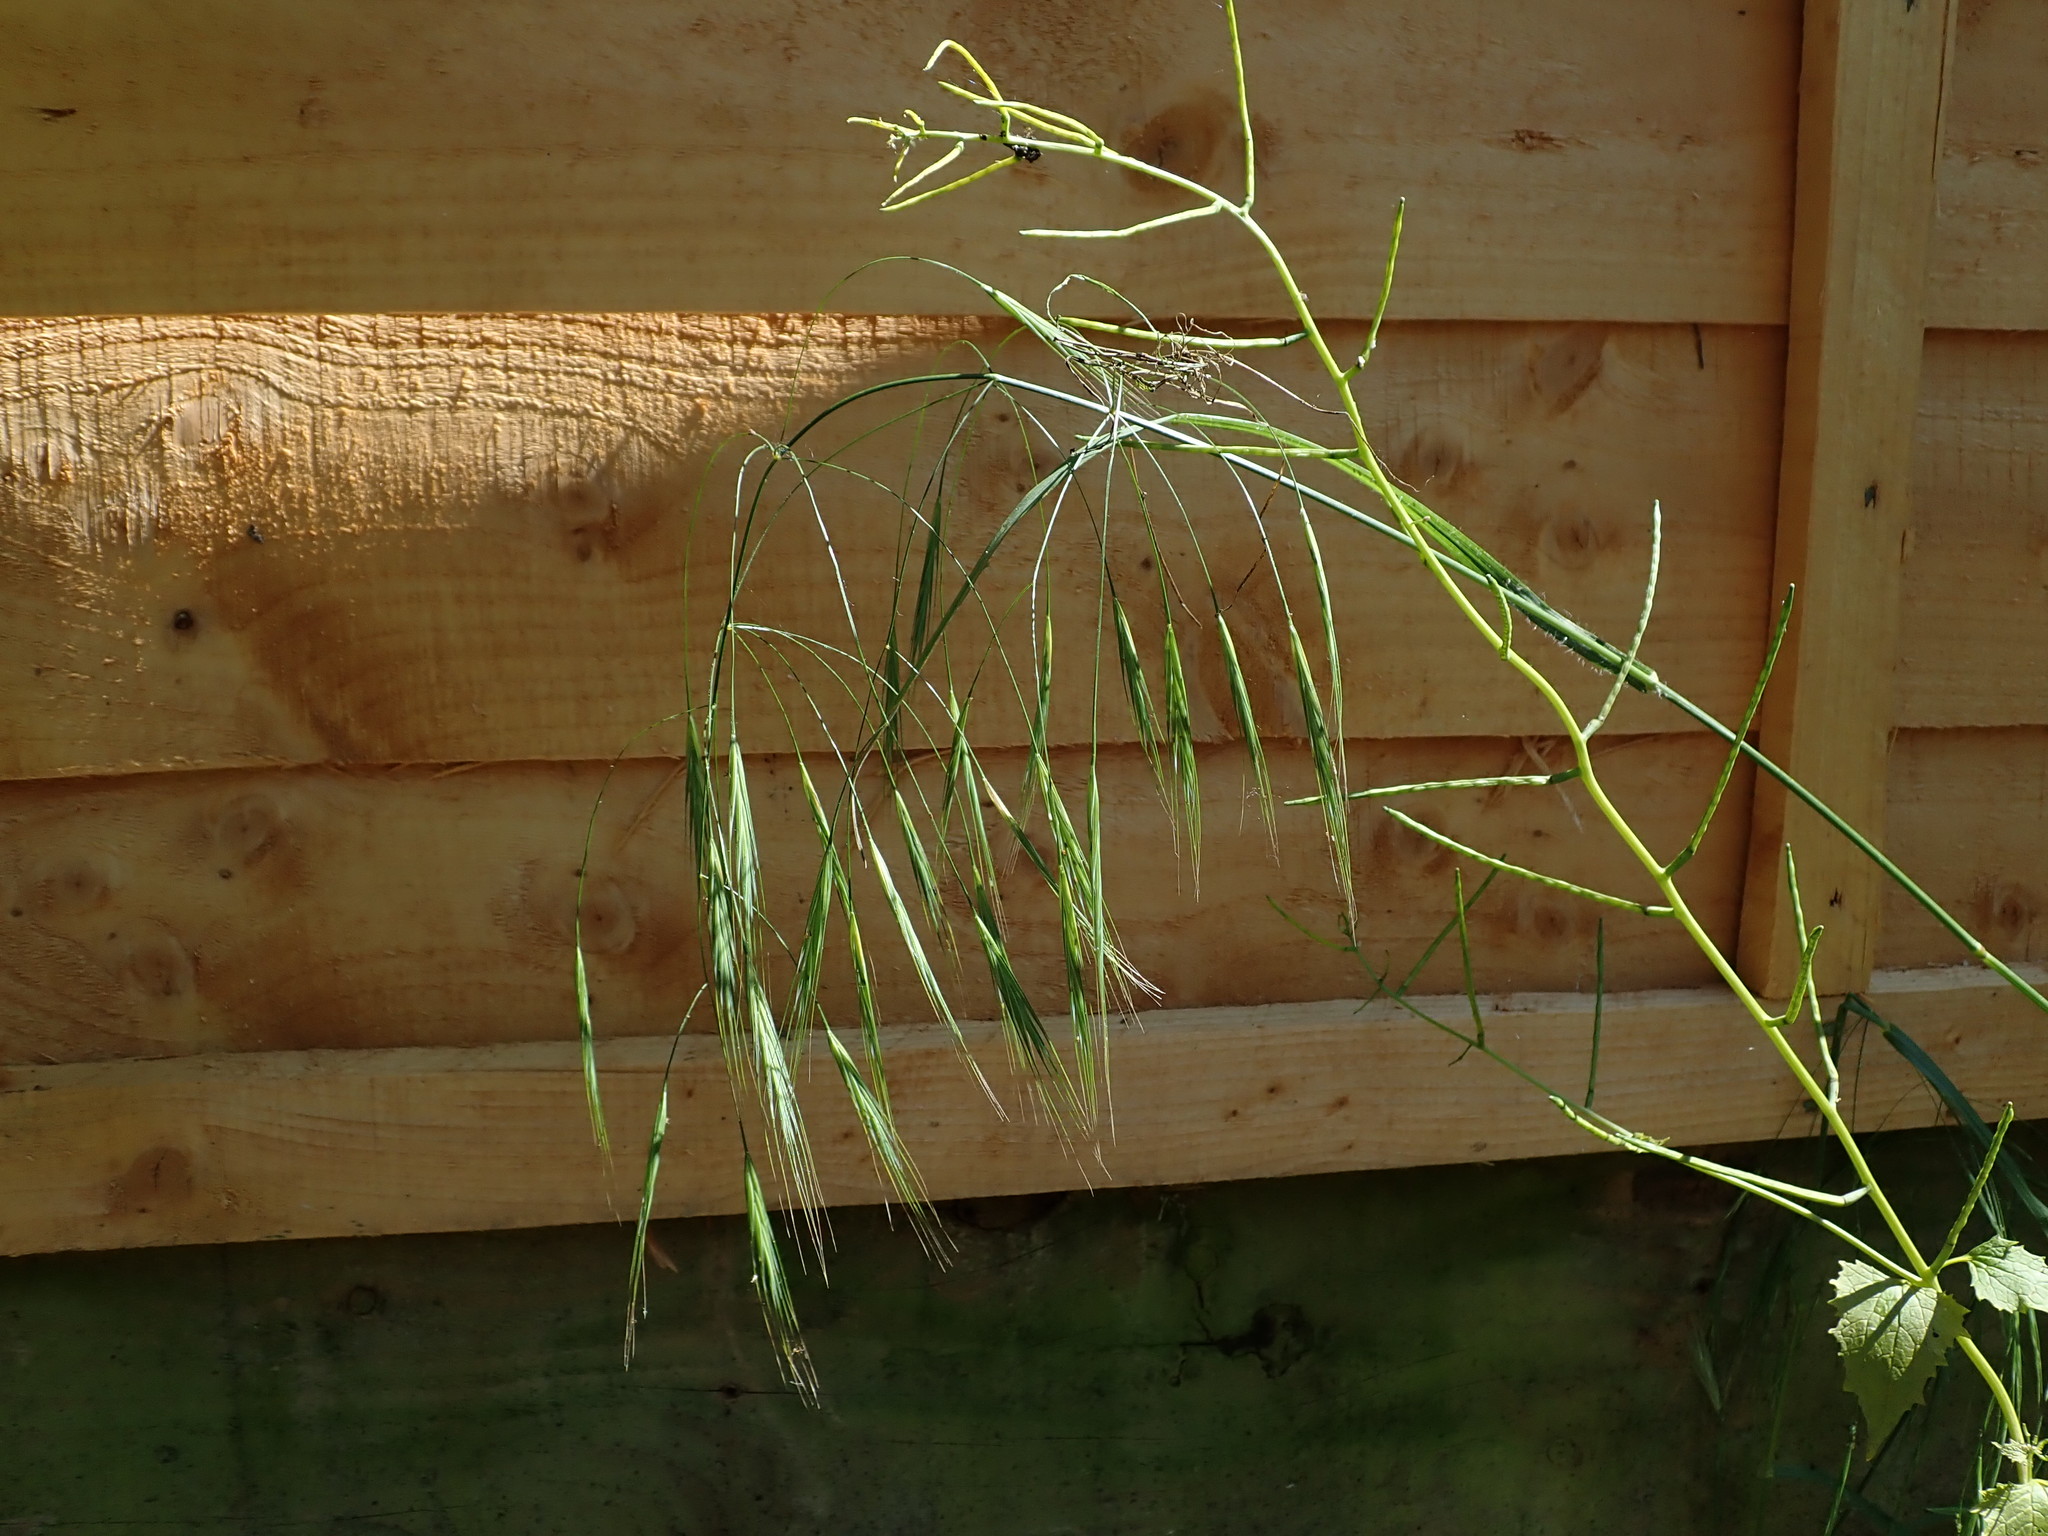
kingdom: Plantae
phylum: Tracheophyta
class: Liliopsida
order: Poales
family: Poaceae
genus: Bromus
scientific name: Bromus sterilis
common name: Poverty brome
